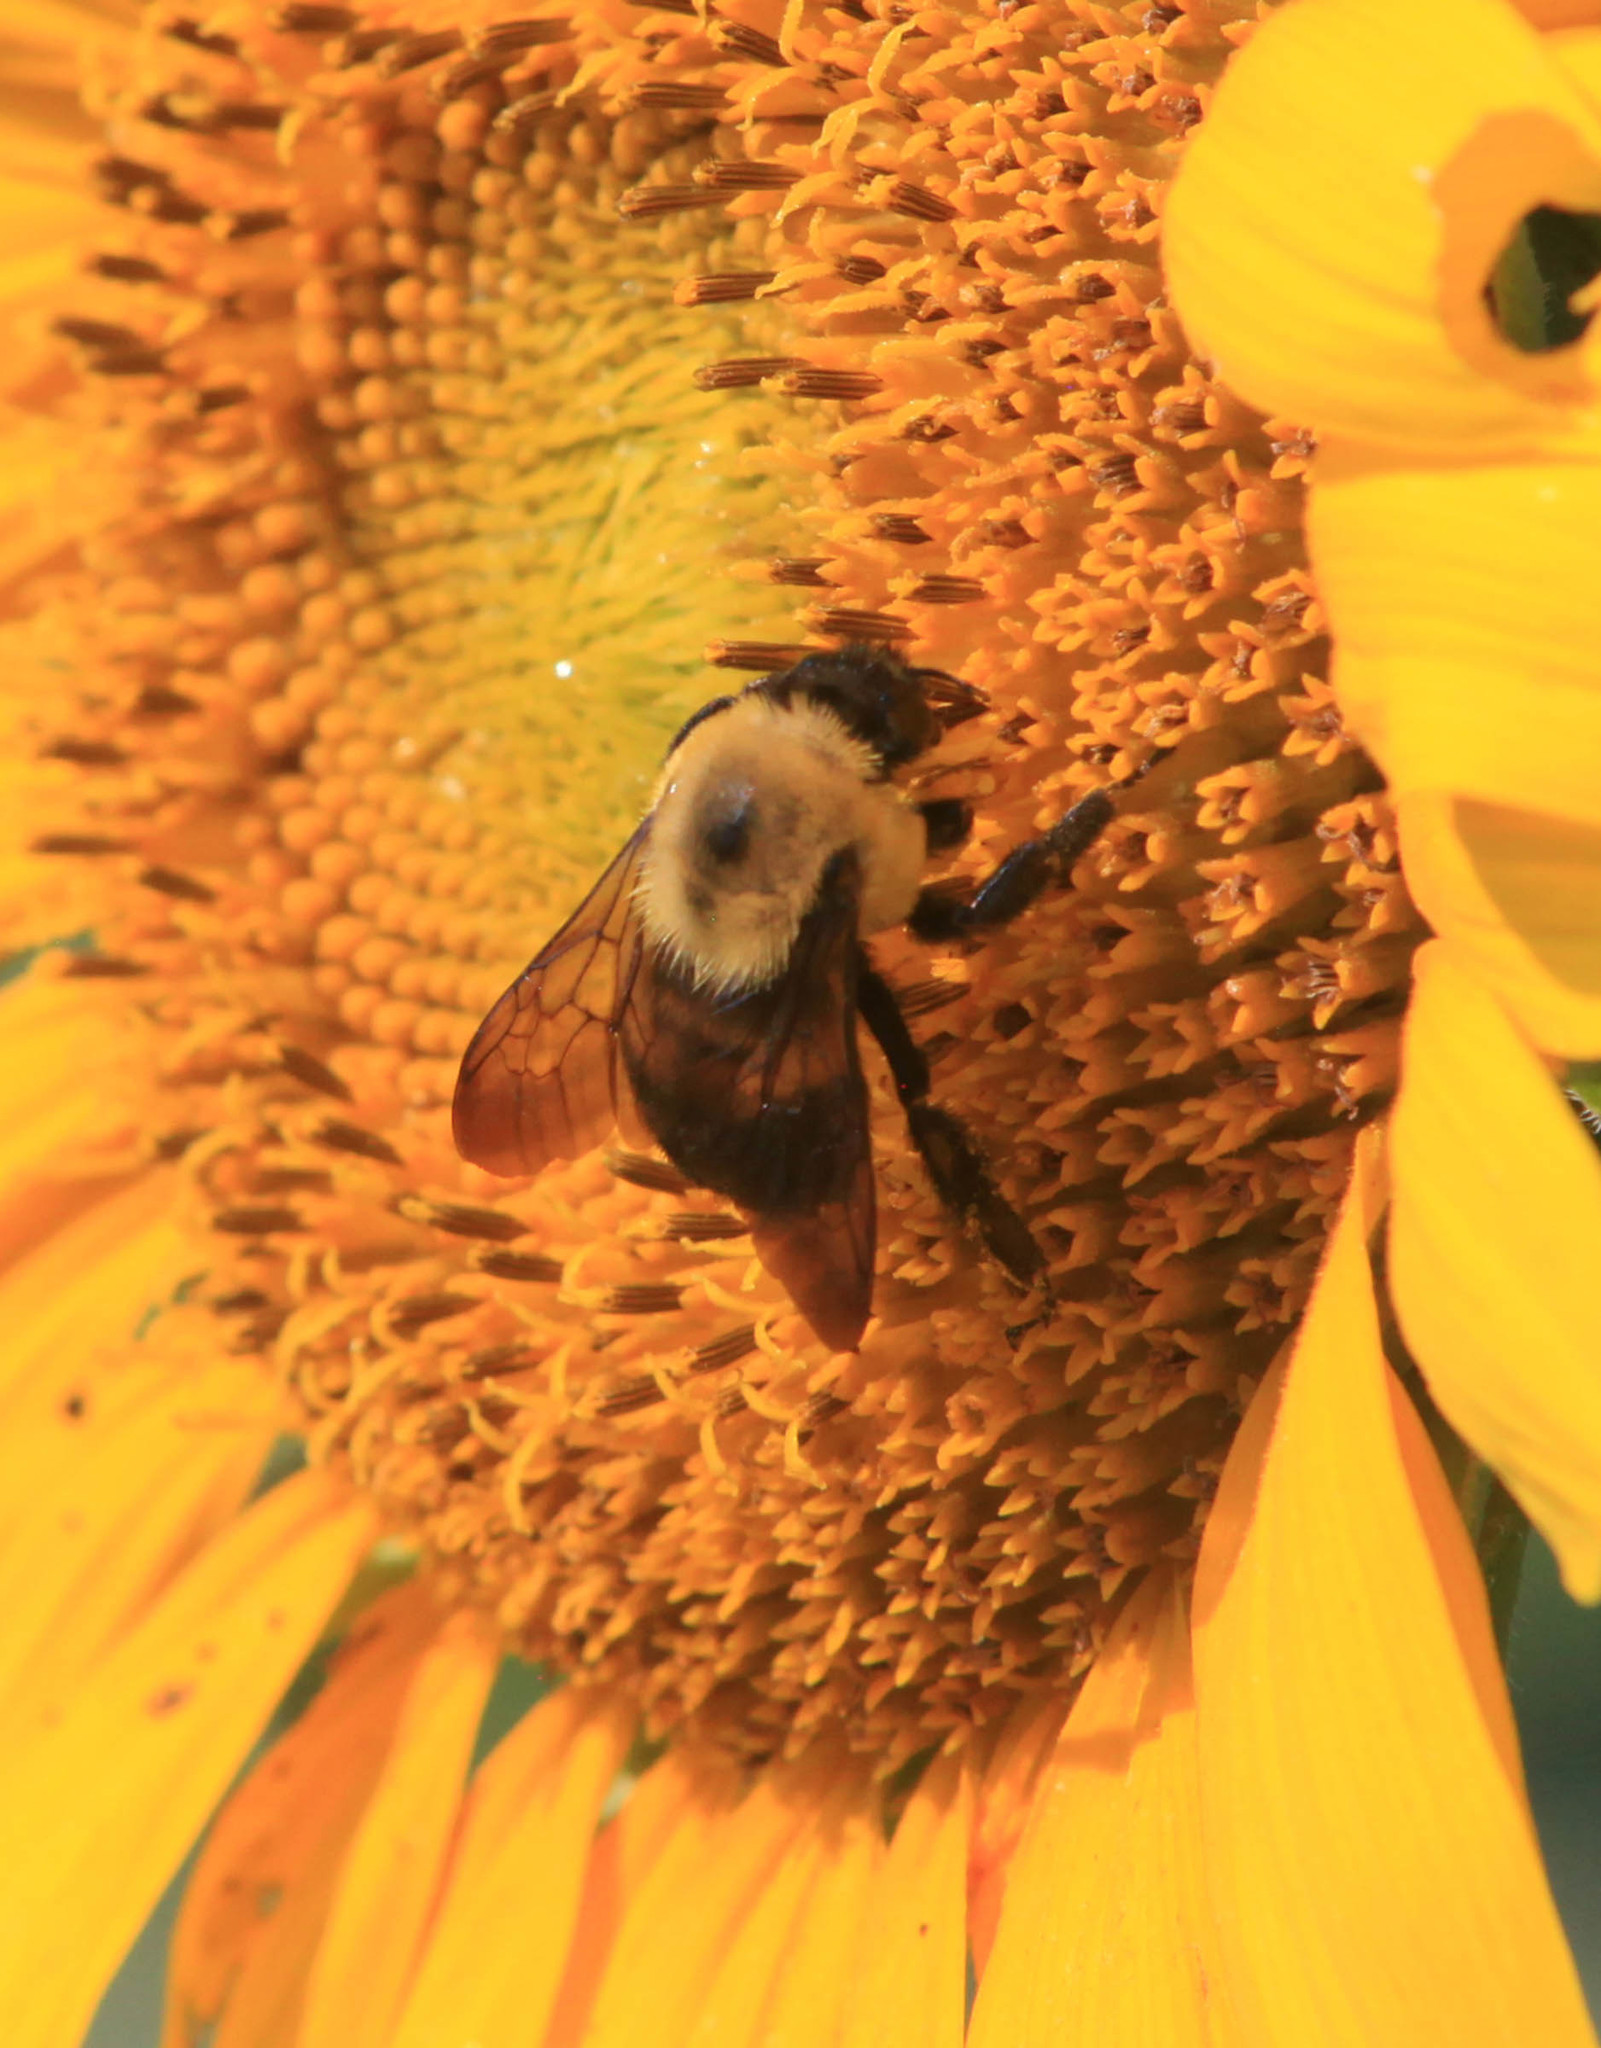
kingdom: Animalia
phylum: Arthropoda
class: Insecta
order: Hymenoptera
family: Apidae
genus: Bombus
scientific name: Bombus griseocollis
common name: Brown-belted bumble bee
